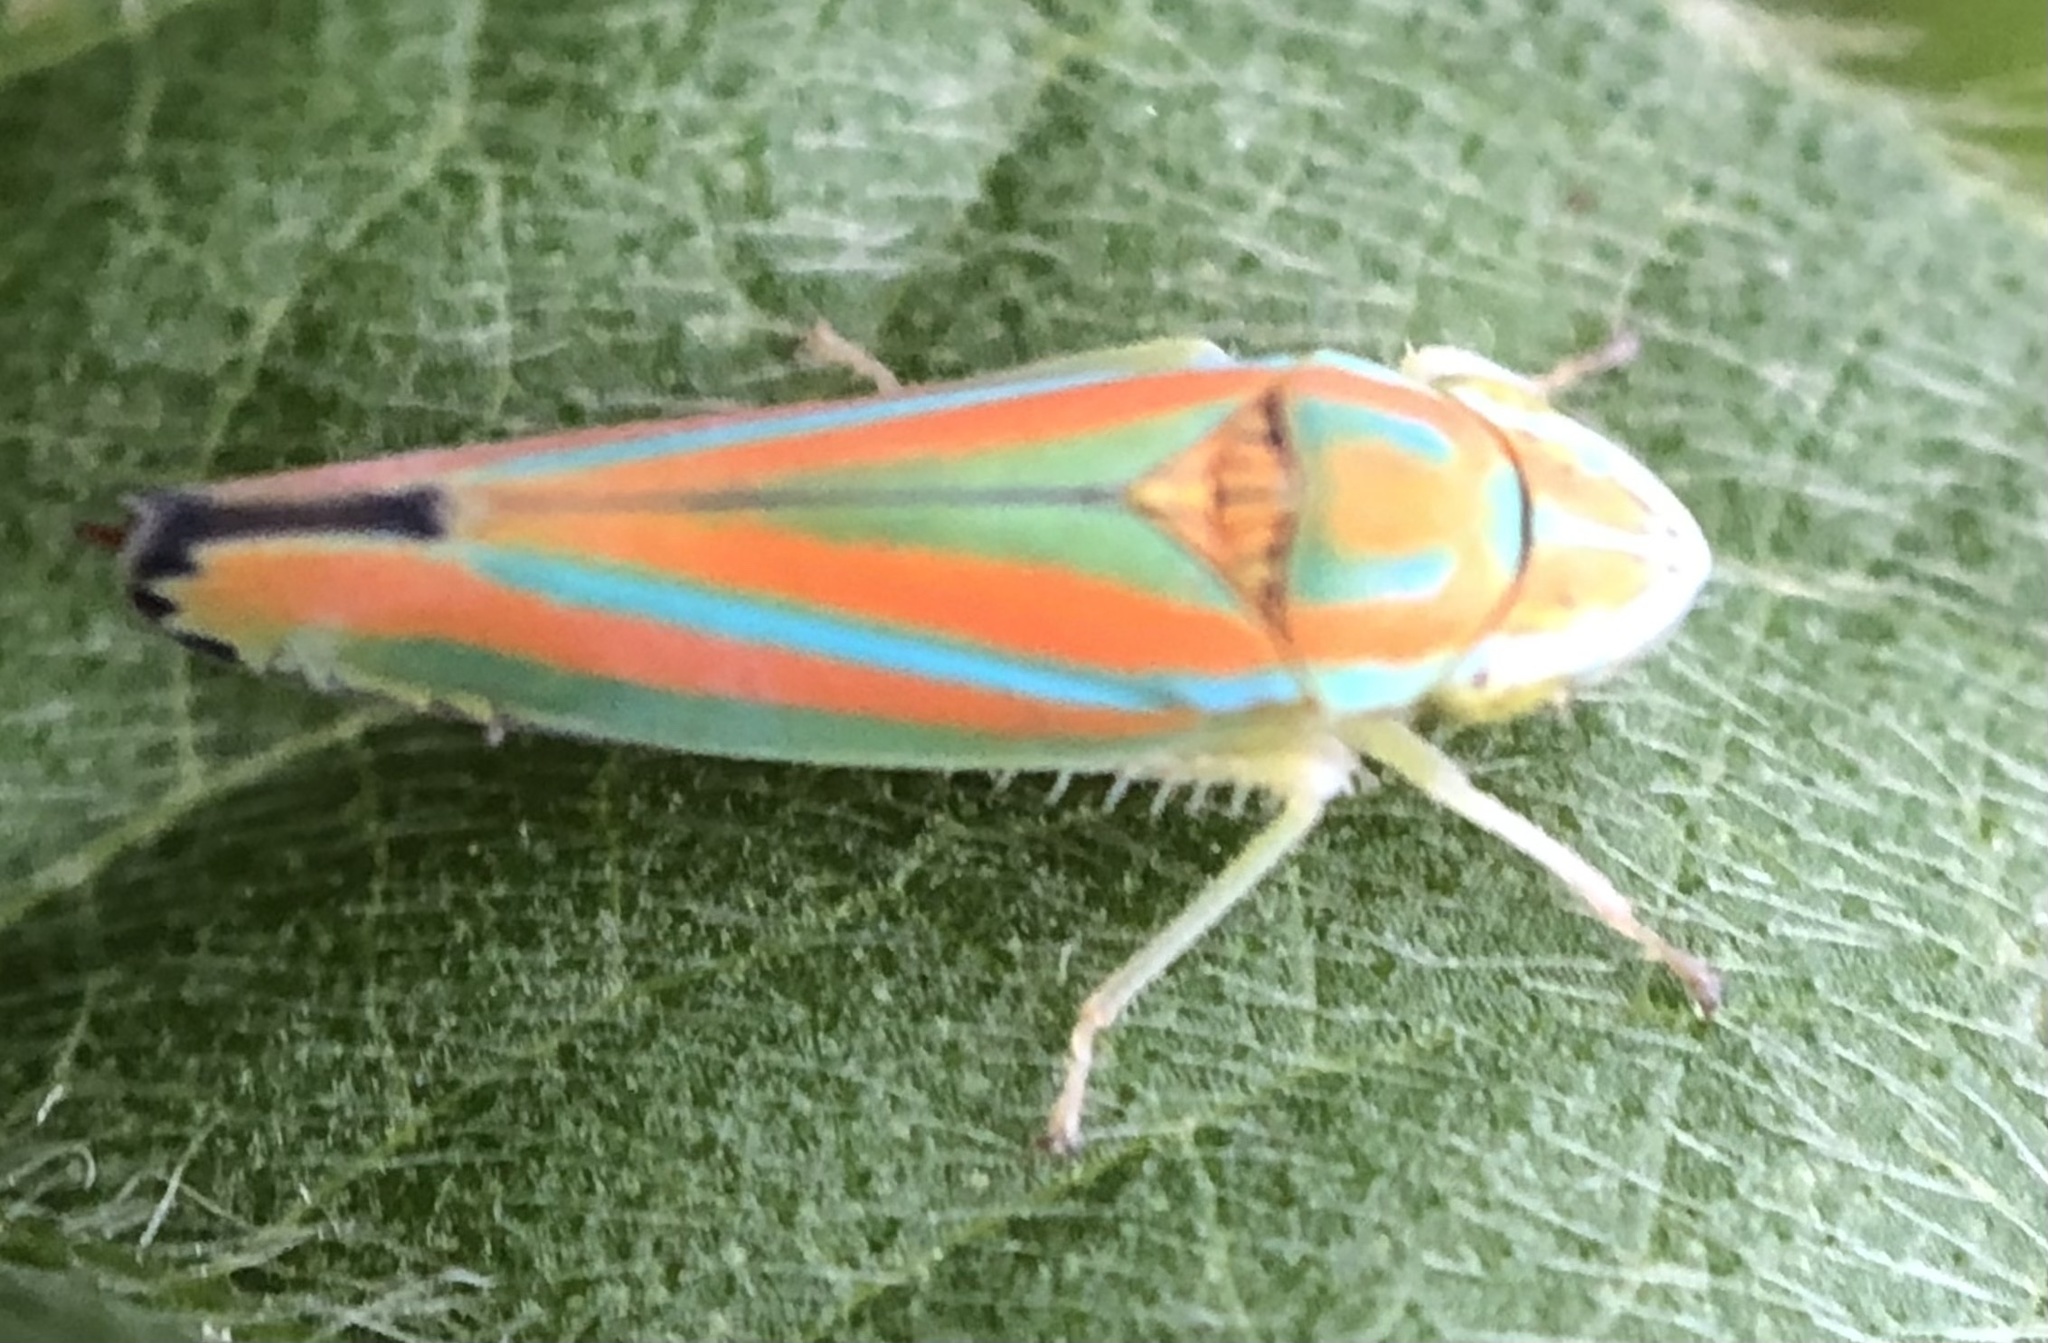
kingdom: Animalia
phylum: Arthropoda
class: Insecta
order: Hemiptera
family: Cicadellidae
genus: Graphocephala
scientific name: Graphocephala versuta
